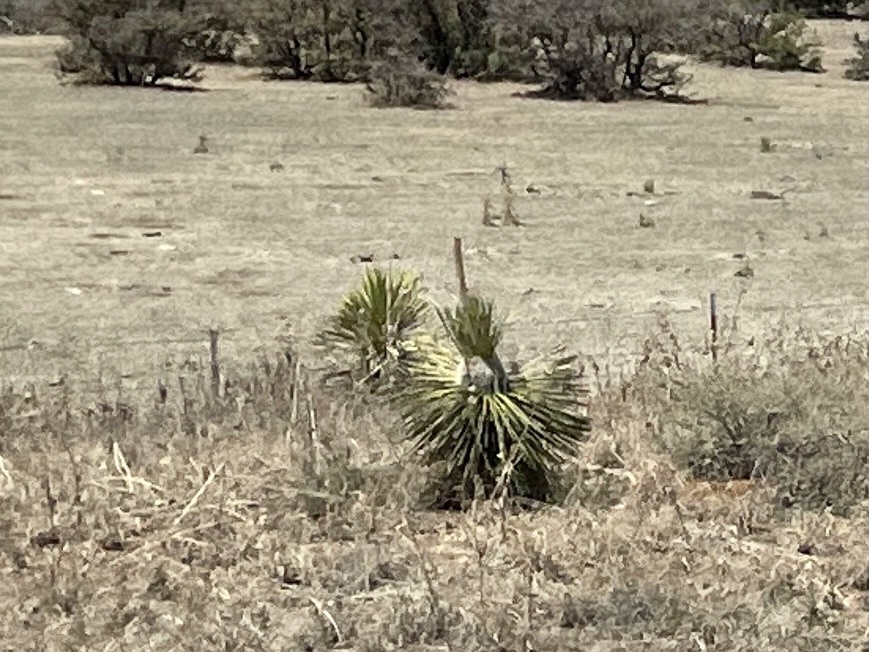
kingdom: Plantae
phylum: Tracheophyta
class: Liliopsida
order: Asparagales
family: Asparagaceae
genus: Yucca
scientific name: Yucca elata
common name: Palmella
